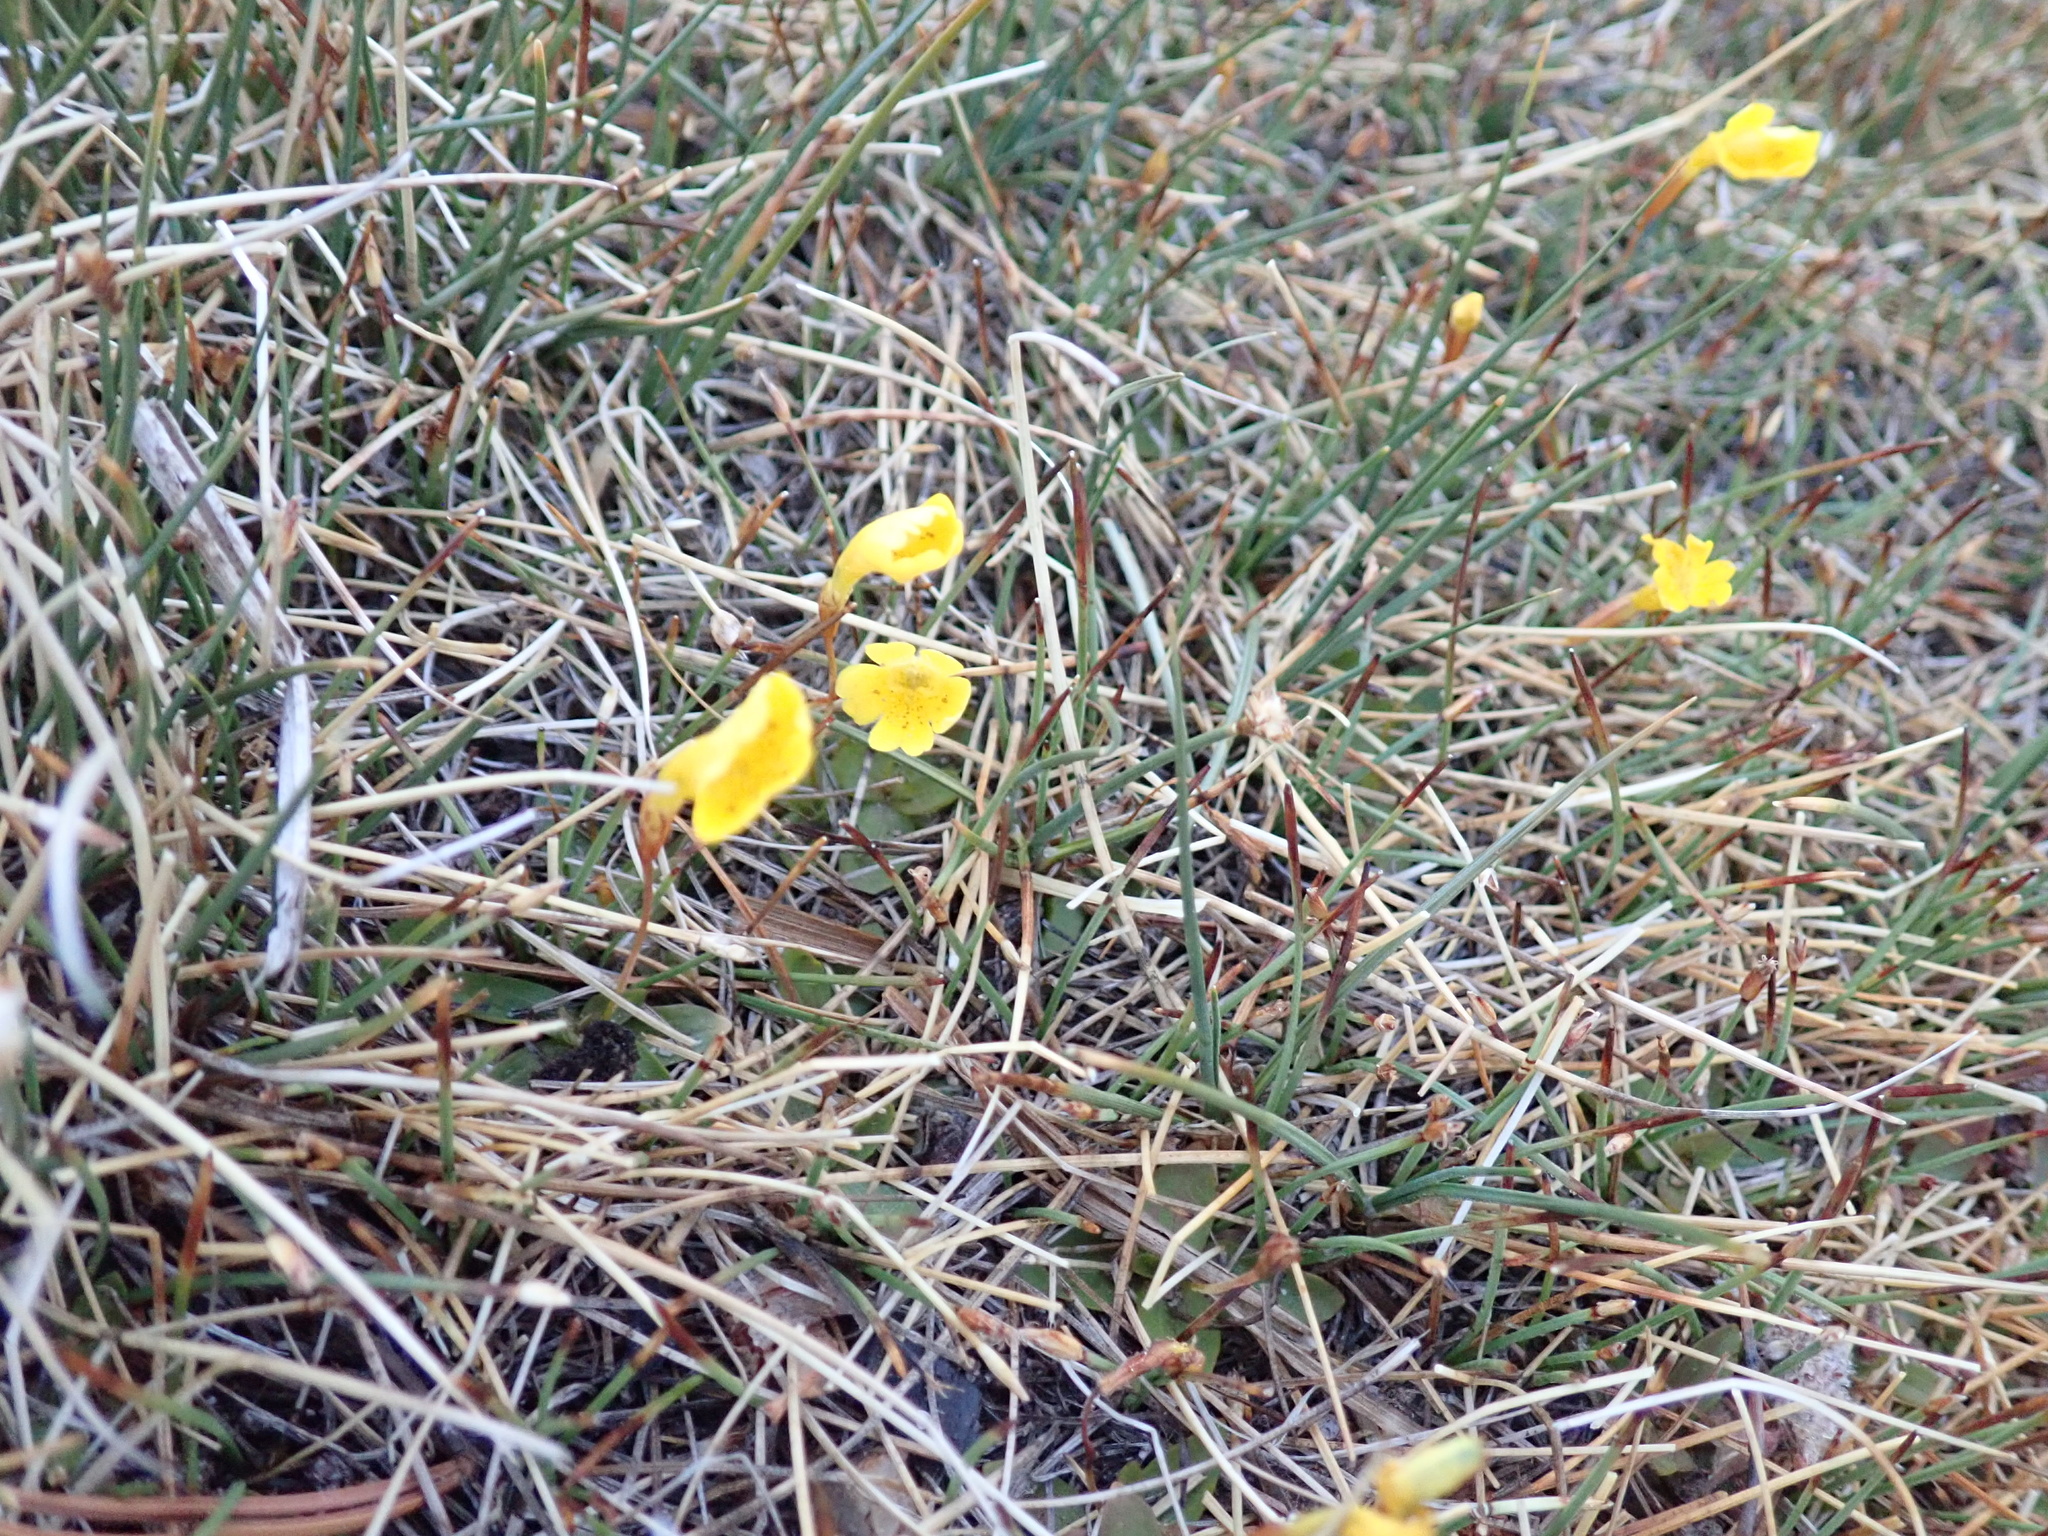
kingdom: Plantae
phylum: Tracheophyta
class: Magnoliopsida
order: Lamiales
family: Phrymaceae
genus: Erythranthe
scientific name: Erythranthe primuloides
